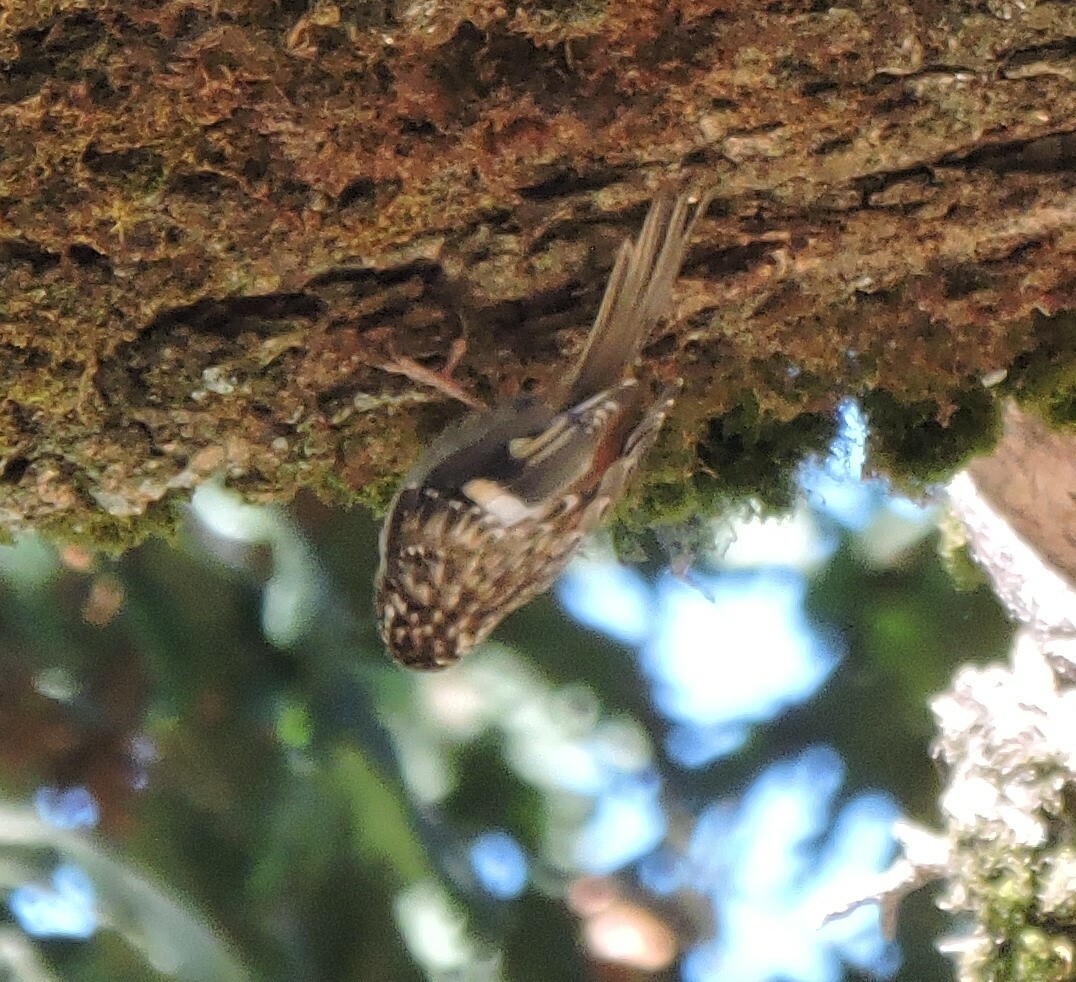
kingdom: Animalia
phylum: Chordata
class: Aves
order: Passeriformes
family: Certhiidae
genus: Certhia
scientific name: Certhia americana
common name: Brown creeper
